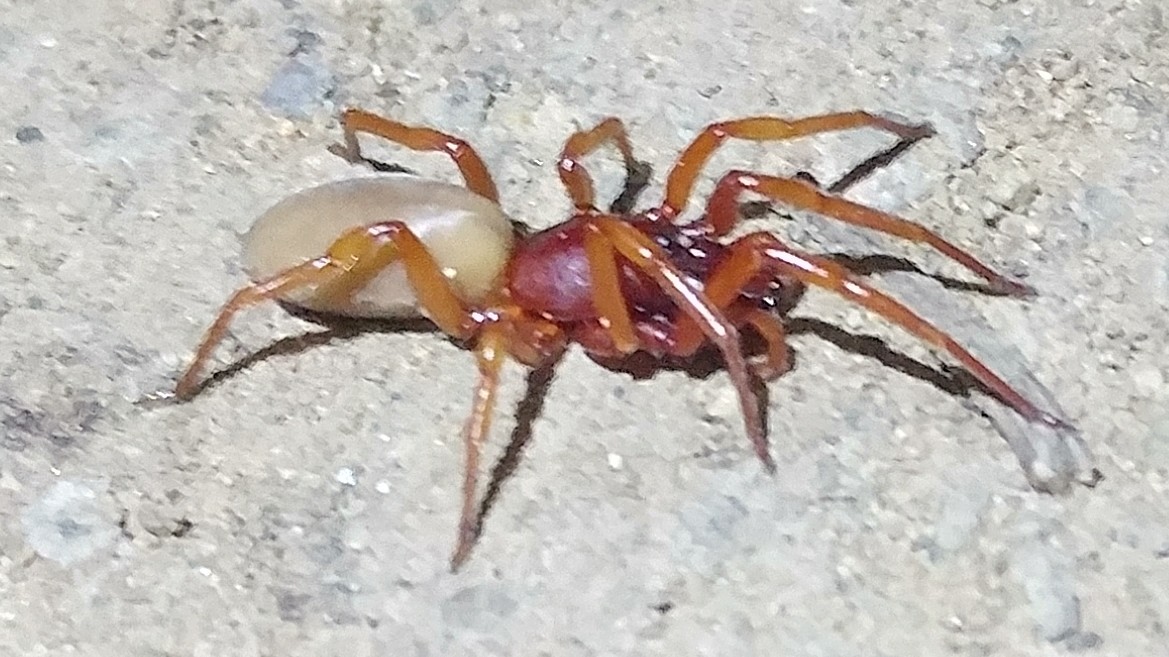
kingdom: Animalia
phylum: Arthropoda
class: Arachnida
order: Araneae
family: Dysderidae
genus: Dysdera
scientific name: Dysdera crocata
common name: Woodlouse spider
